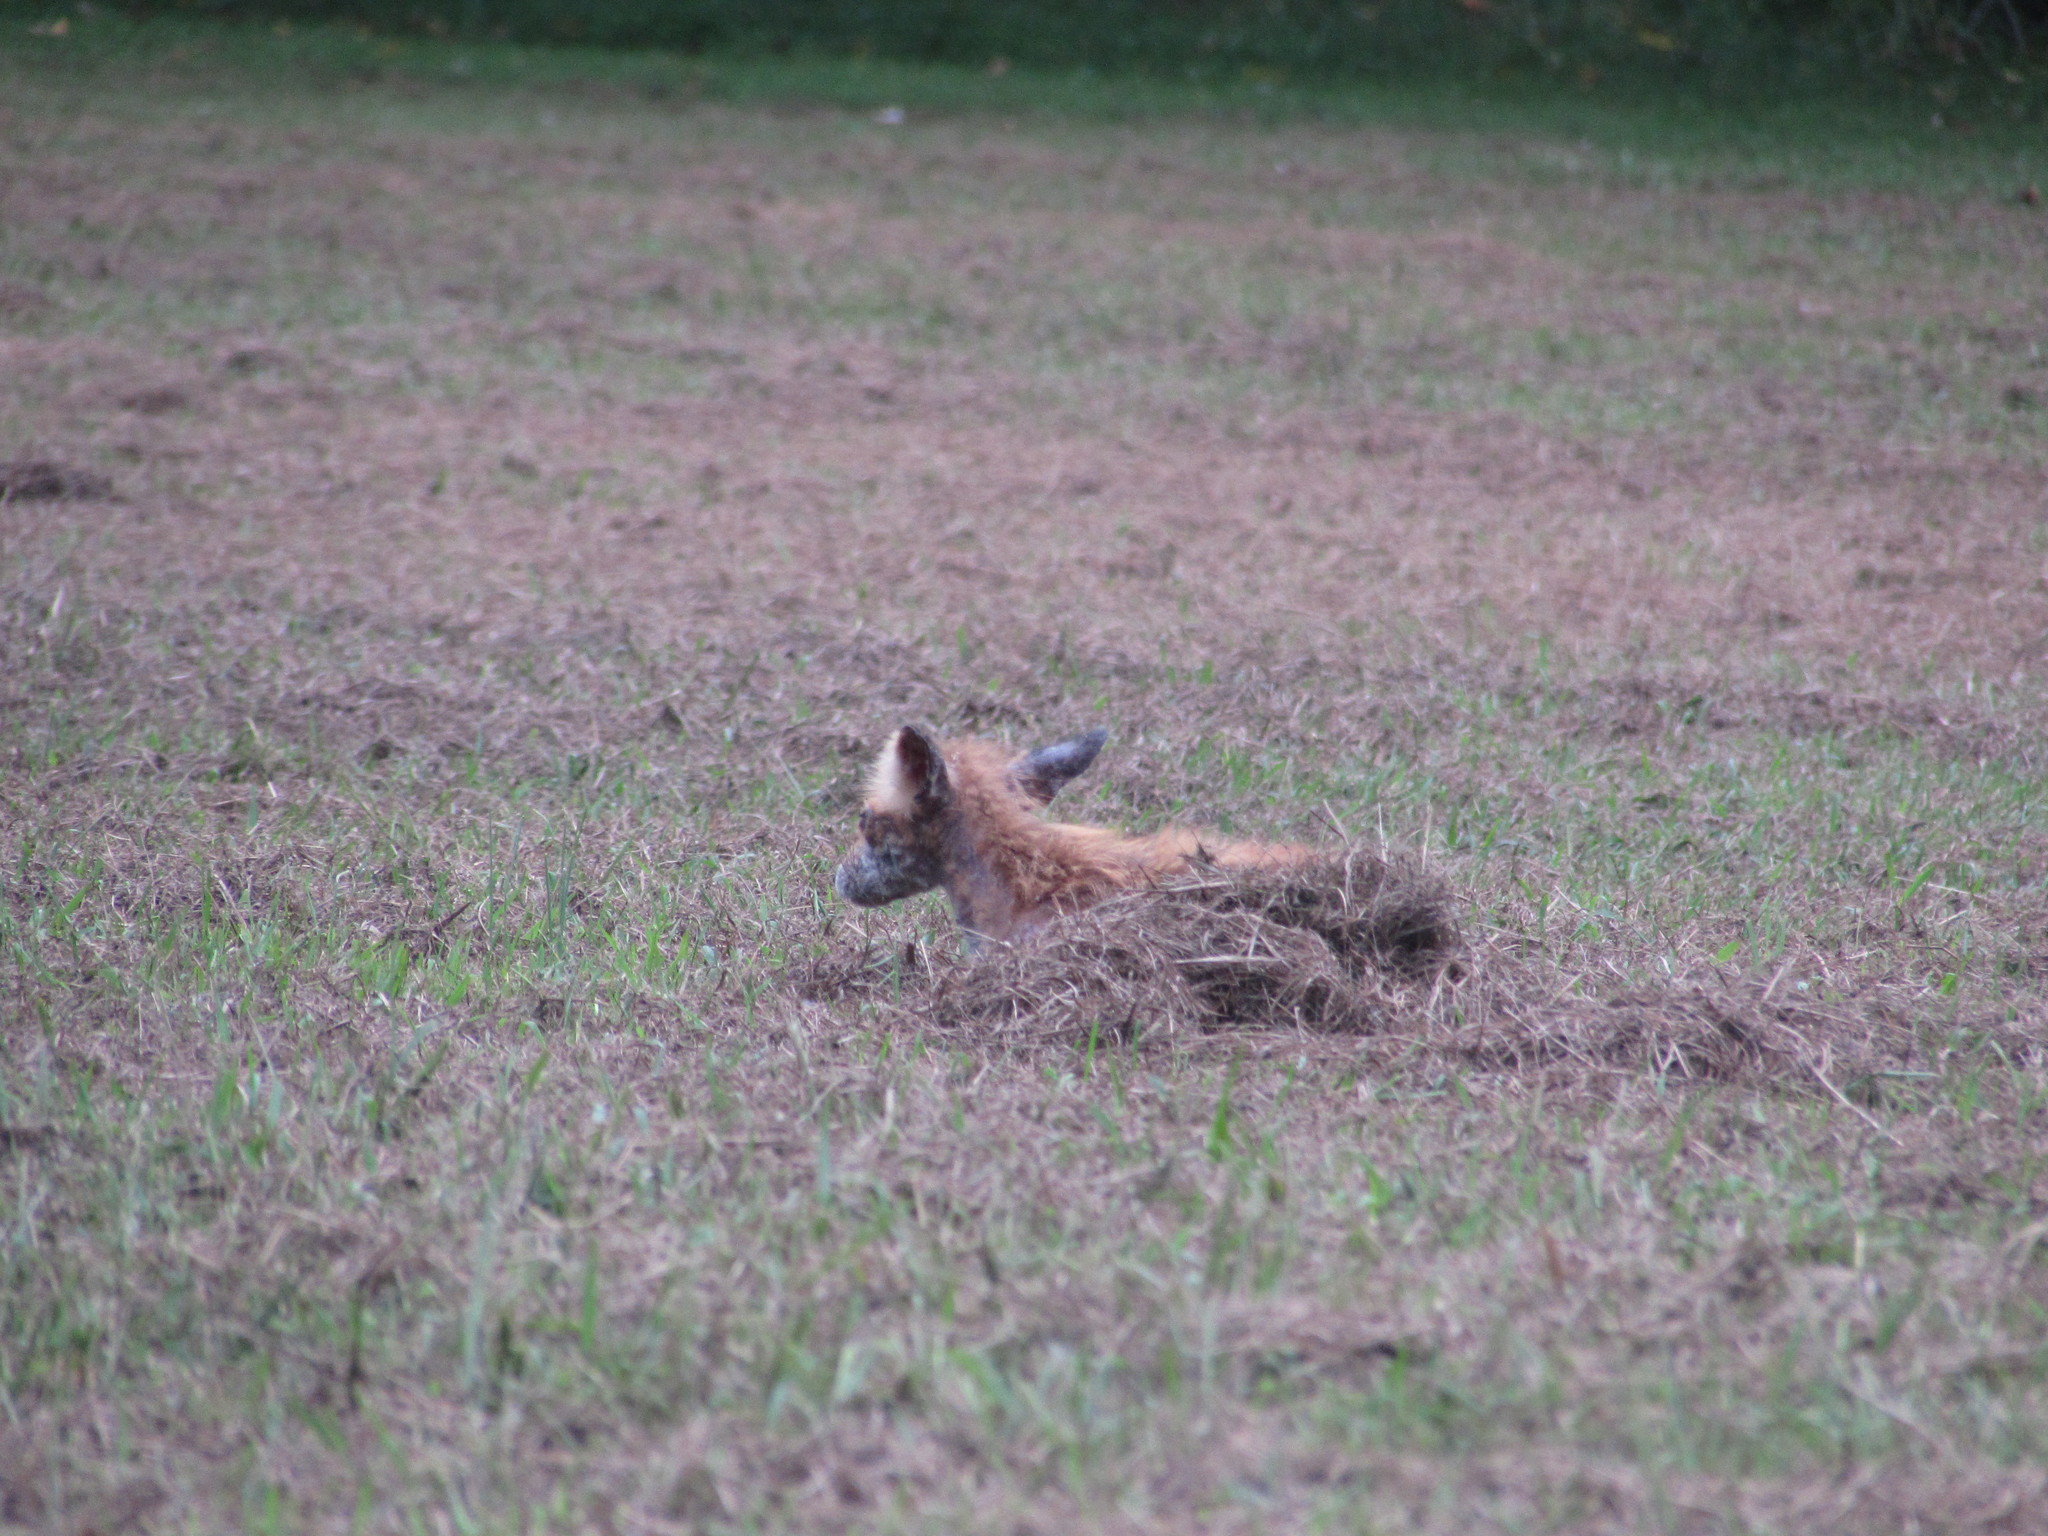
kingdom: Animalia
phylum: Chordata
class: Mammalia
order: Carnivora
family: Canidae
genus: Vulpes
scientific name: Vulpes vulpes
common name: Red fox
